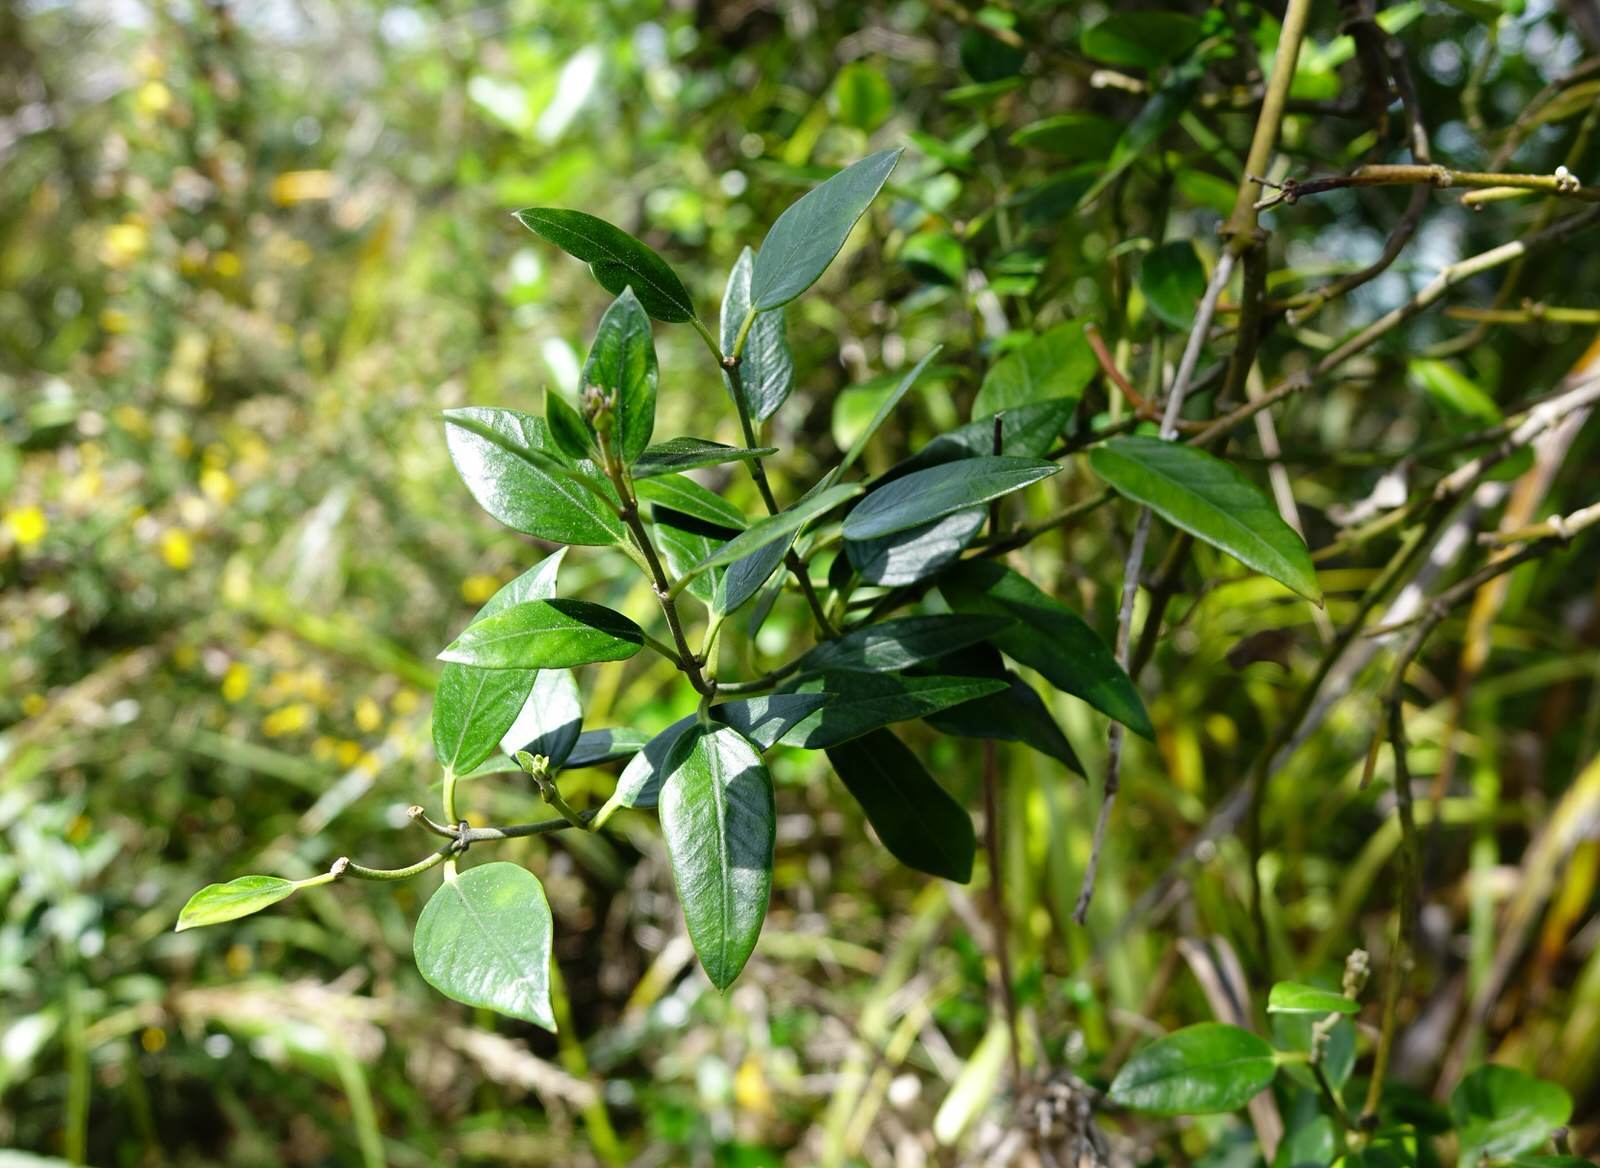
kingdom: Plantae
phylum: Tracheophyta
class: Magnoliopsida
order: Gentianales
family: Apocynaceae
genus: Parsonsia
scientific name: Parsonsia heterophylla
